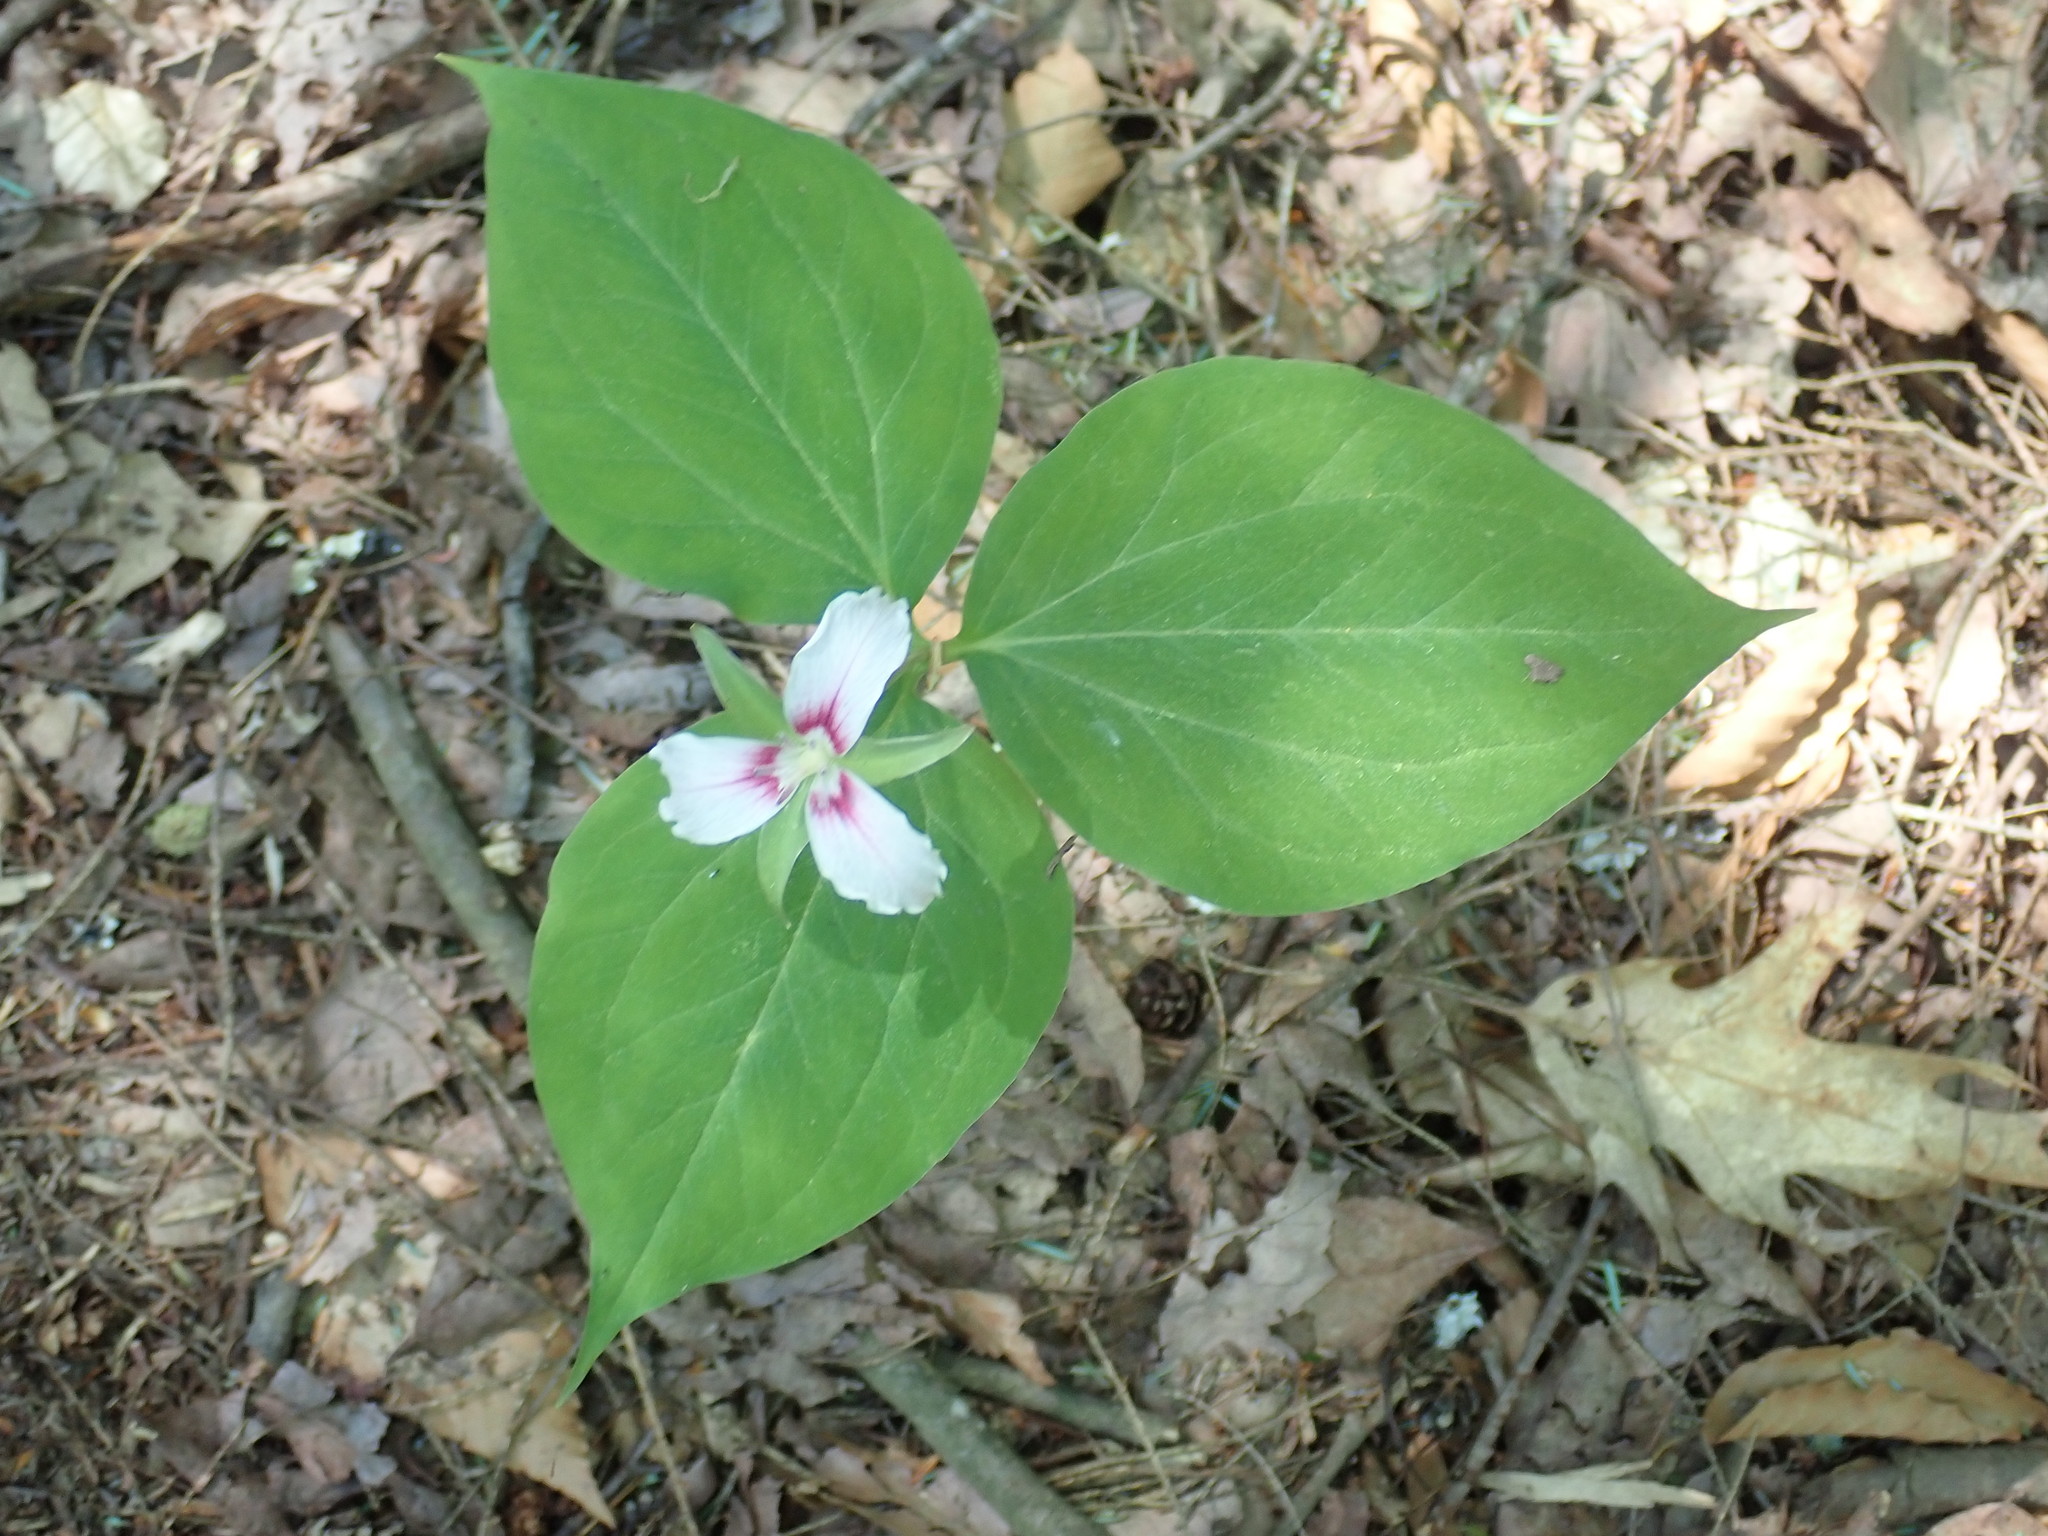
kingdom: Plantae
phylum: Tracheophyta
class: Liliopsida
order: Liliales
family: Melanthiaceae
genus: Trillium
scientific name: Trillium undulatum
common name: Paint trillium
